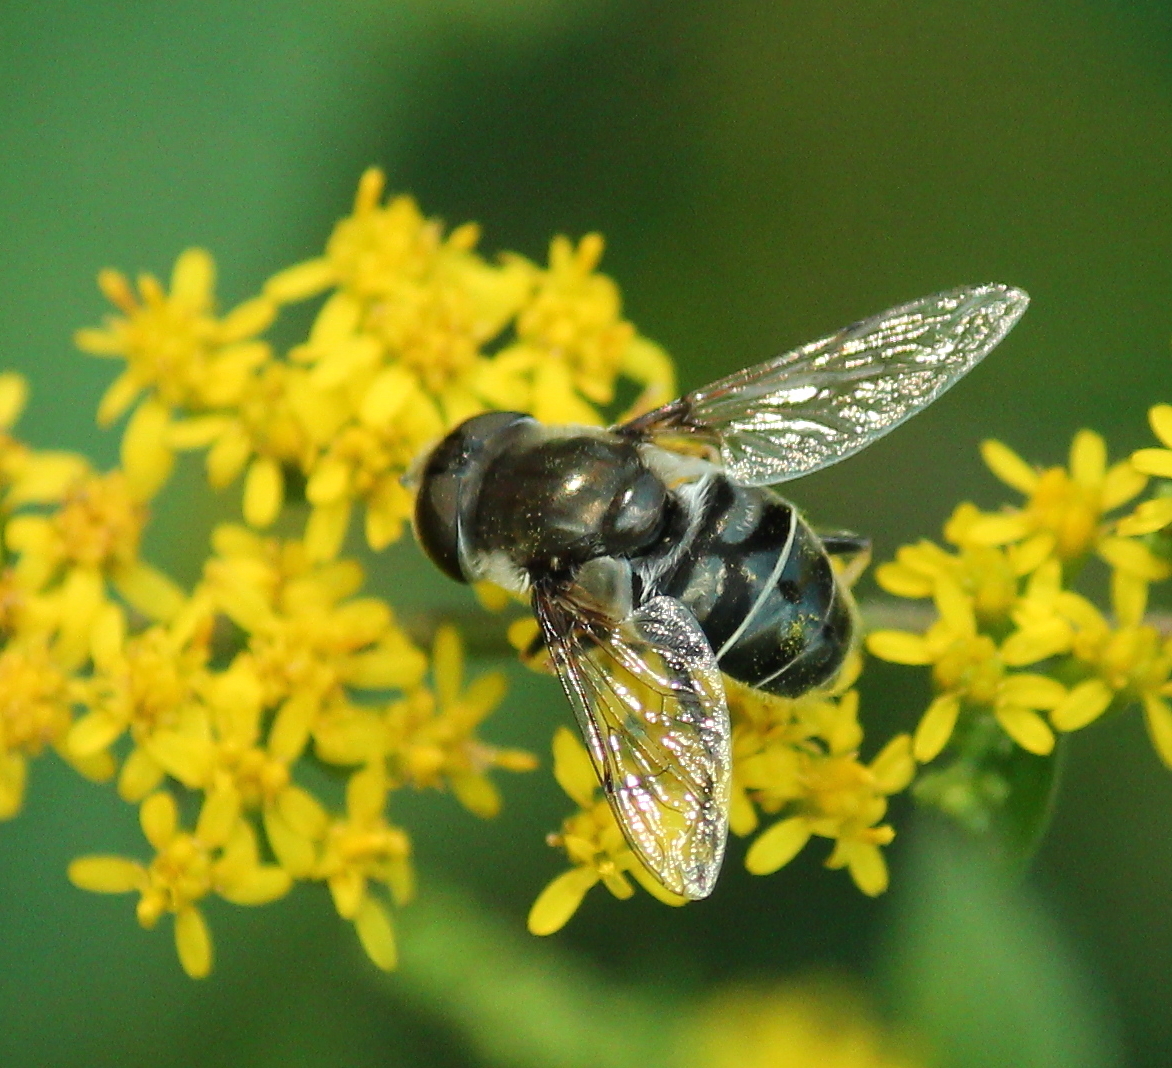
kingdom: Animalia
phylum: Arthropoda
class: Insecta
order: Diptera
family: Syrphidae
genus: Eristalis
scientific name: Eristalis dimidiata
